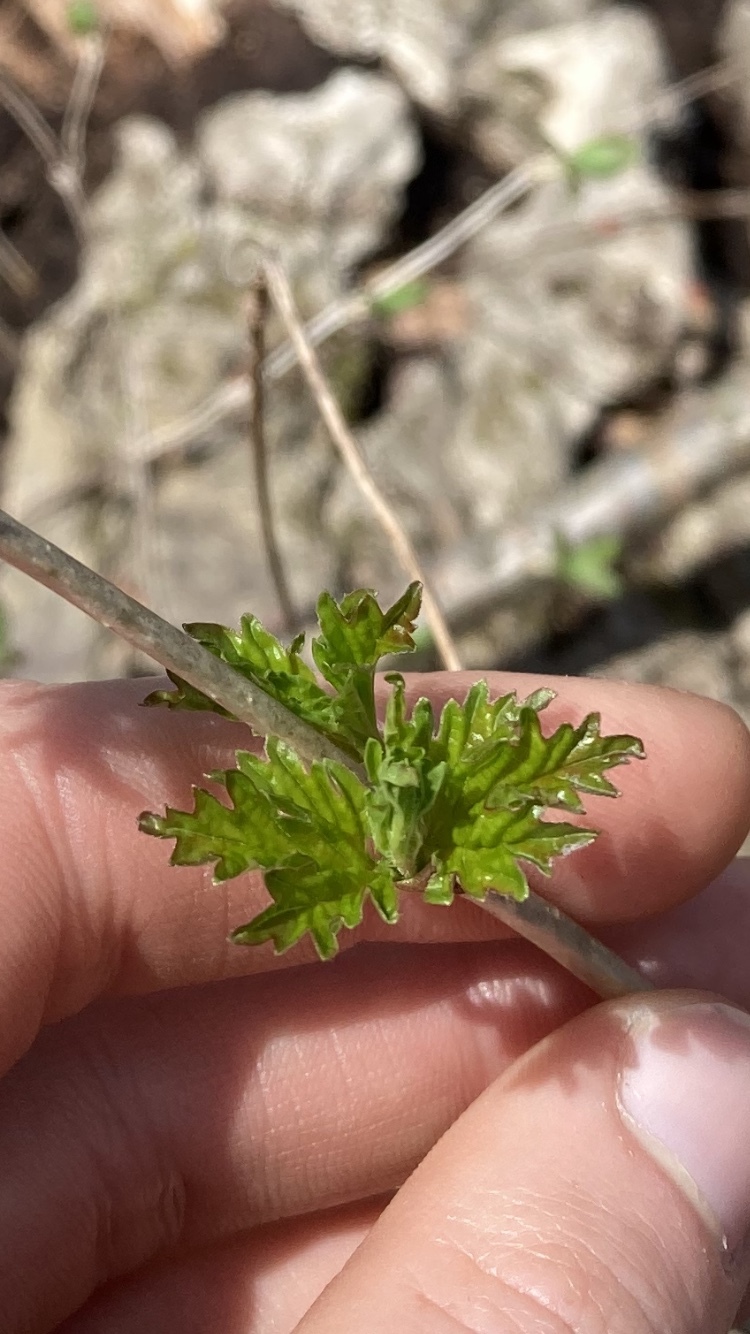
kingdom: Plantae
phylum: Tracheophyta
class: Magnoliopsida
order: Dipsacales
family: Viburnaceae
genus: Viburnum
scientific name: Viburnum opulus
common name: Guelder-rose
